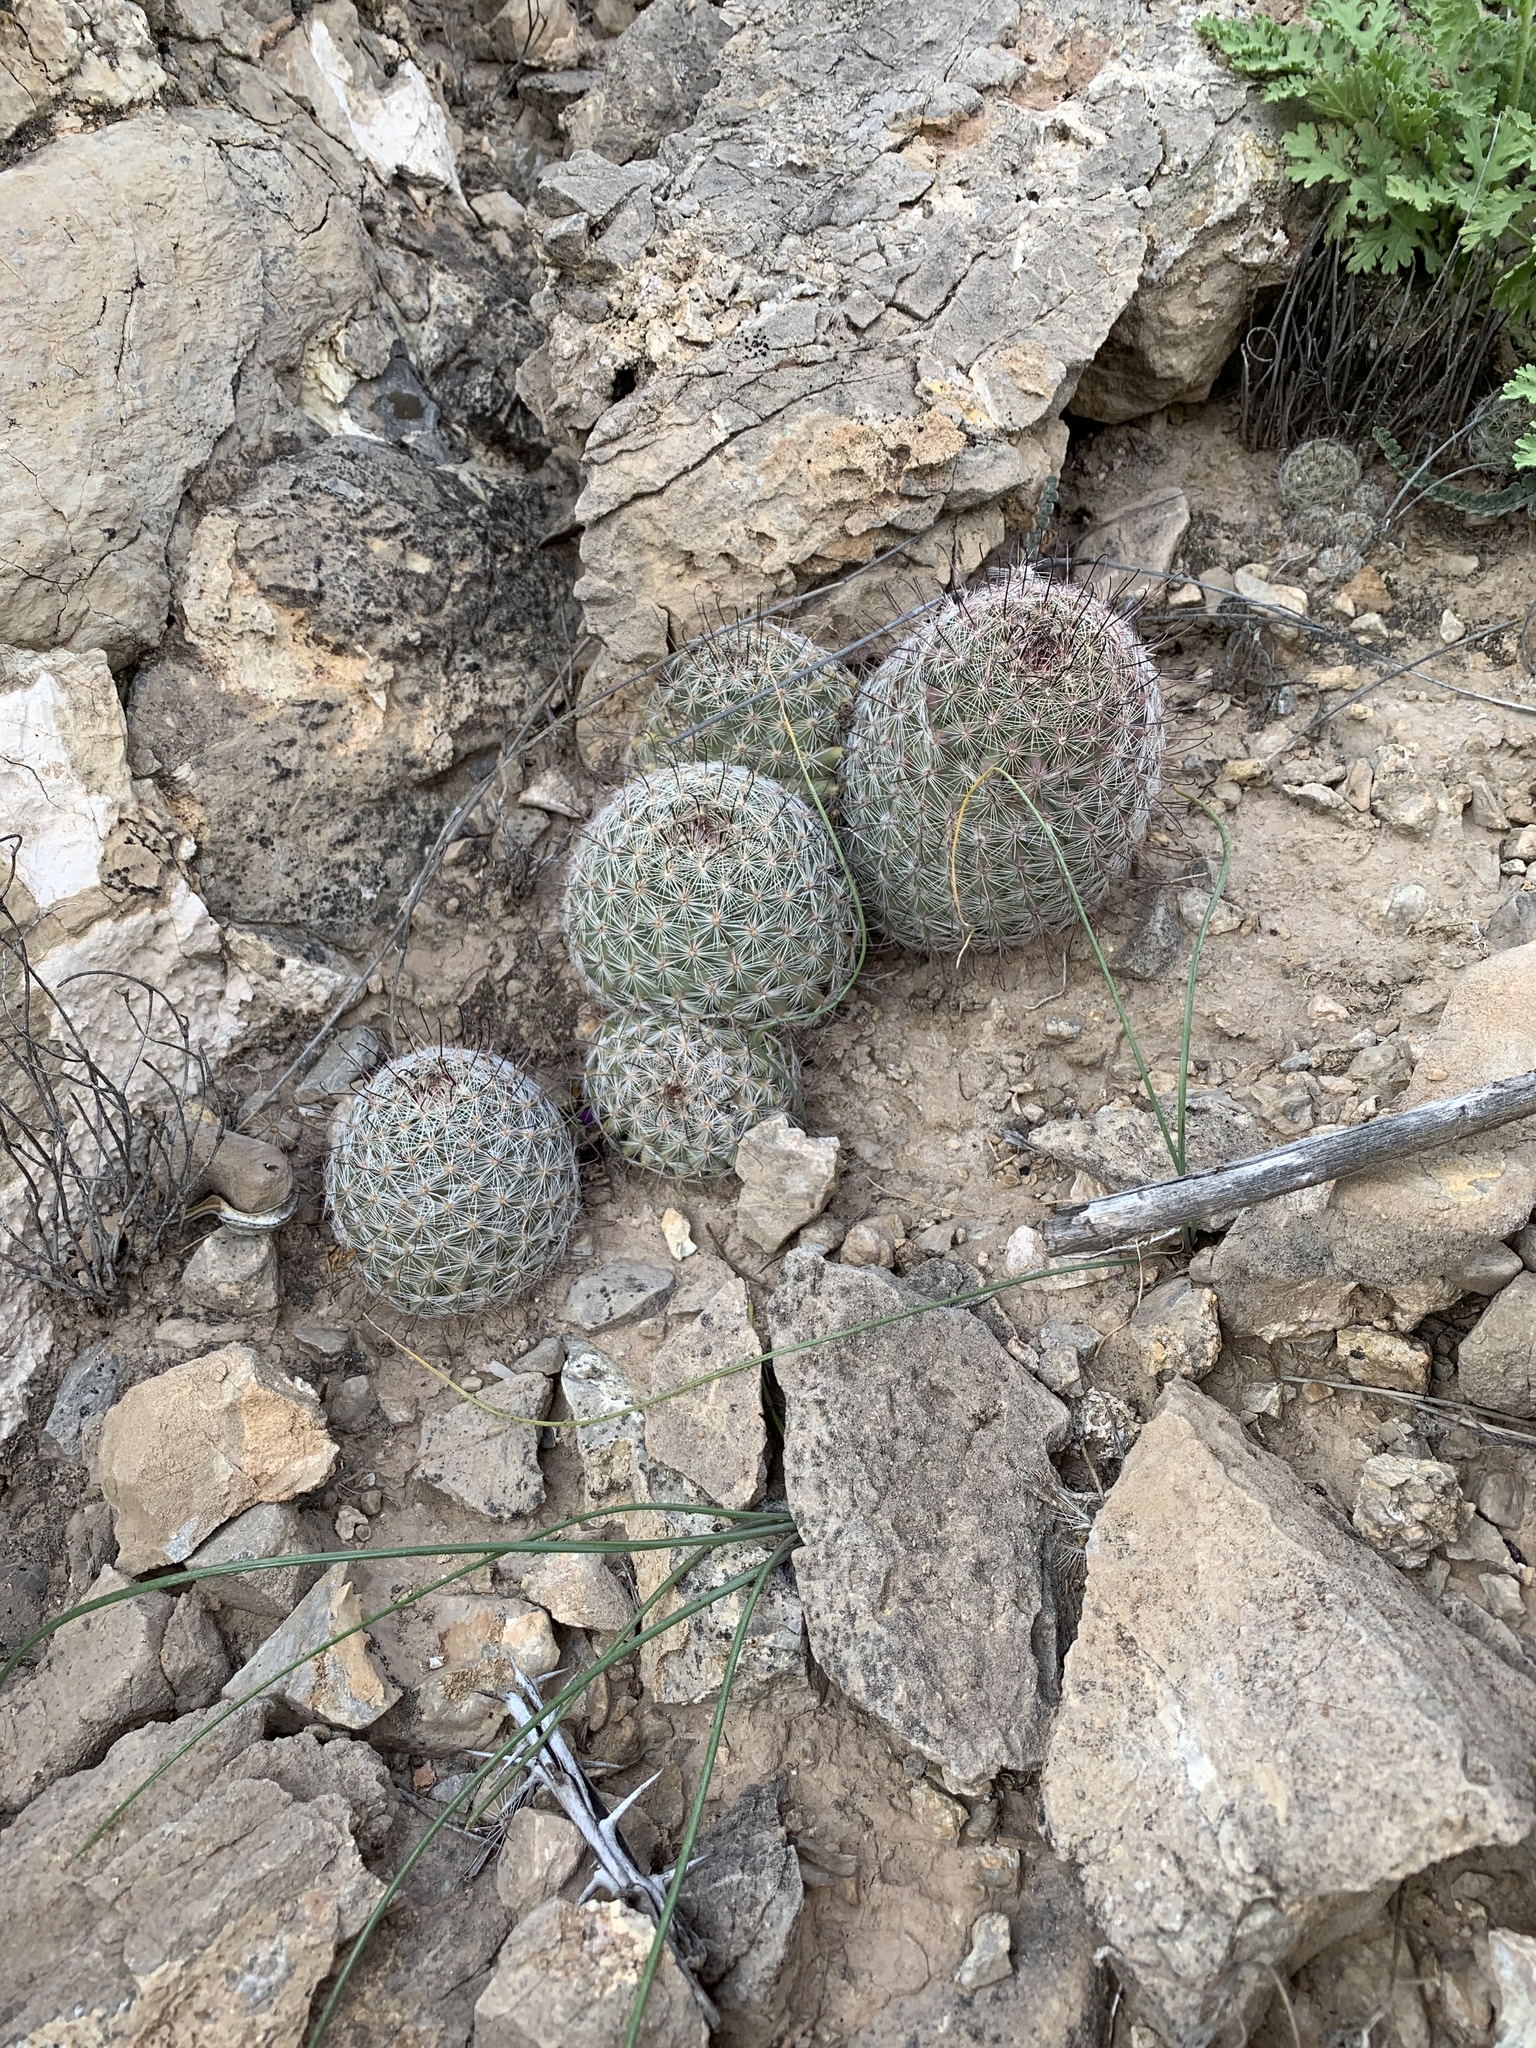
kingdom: Plantae
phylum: Tracheophyta
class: Magnoliopsida
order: Caryophyllales
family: Cactaceae
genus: Cochemiea
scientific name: Cochemiea grahamii
